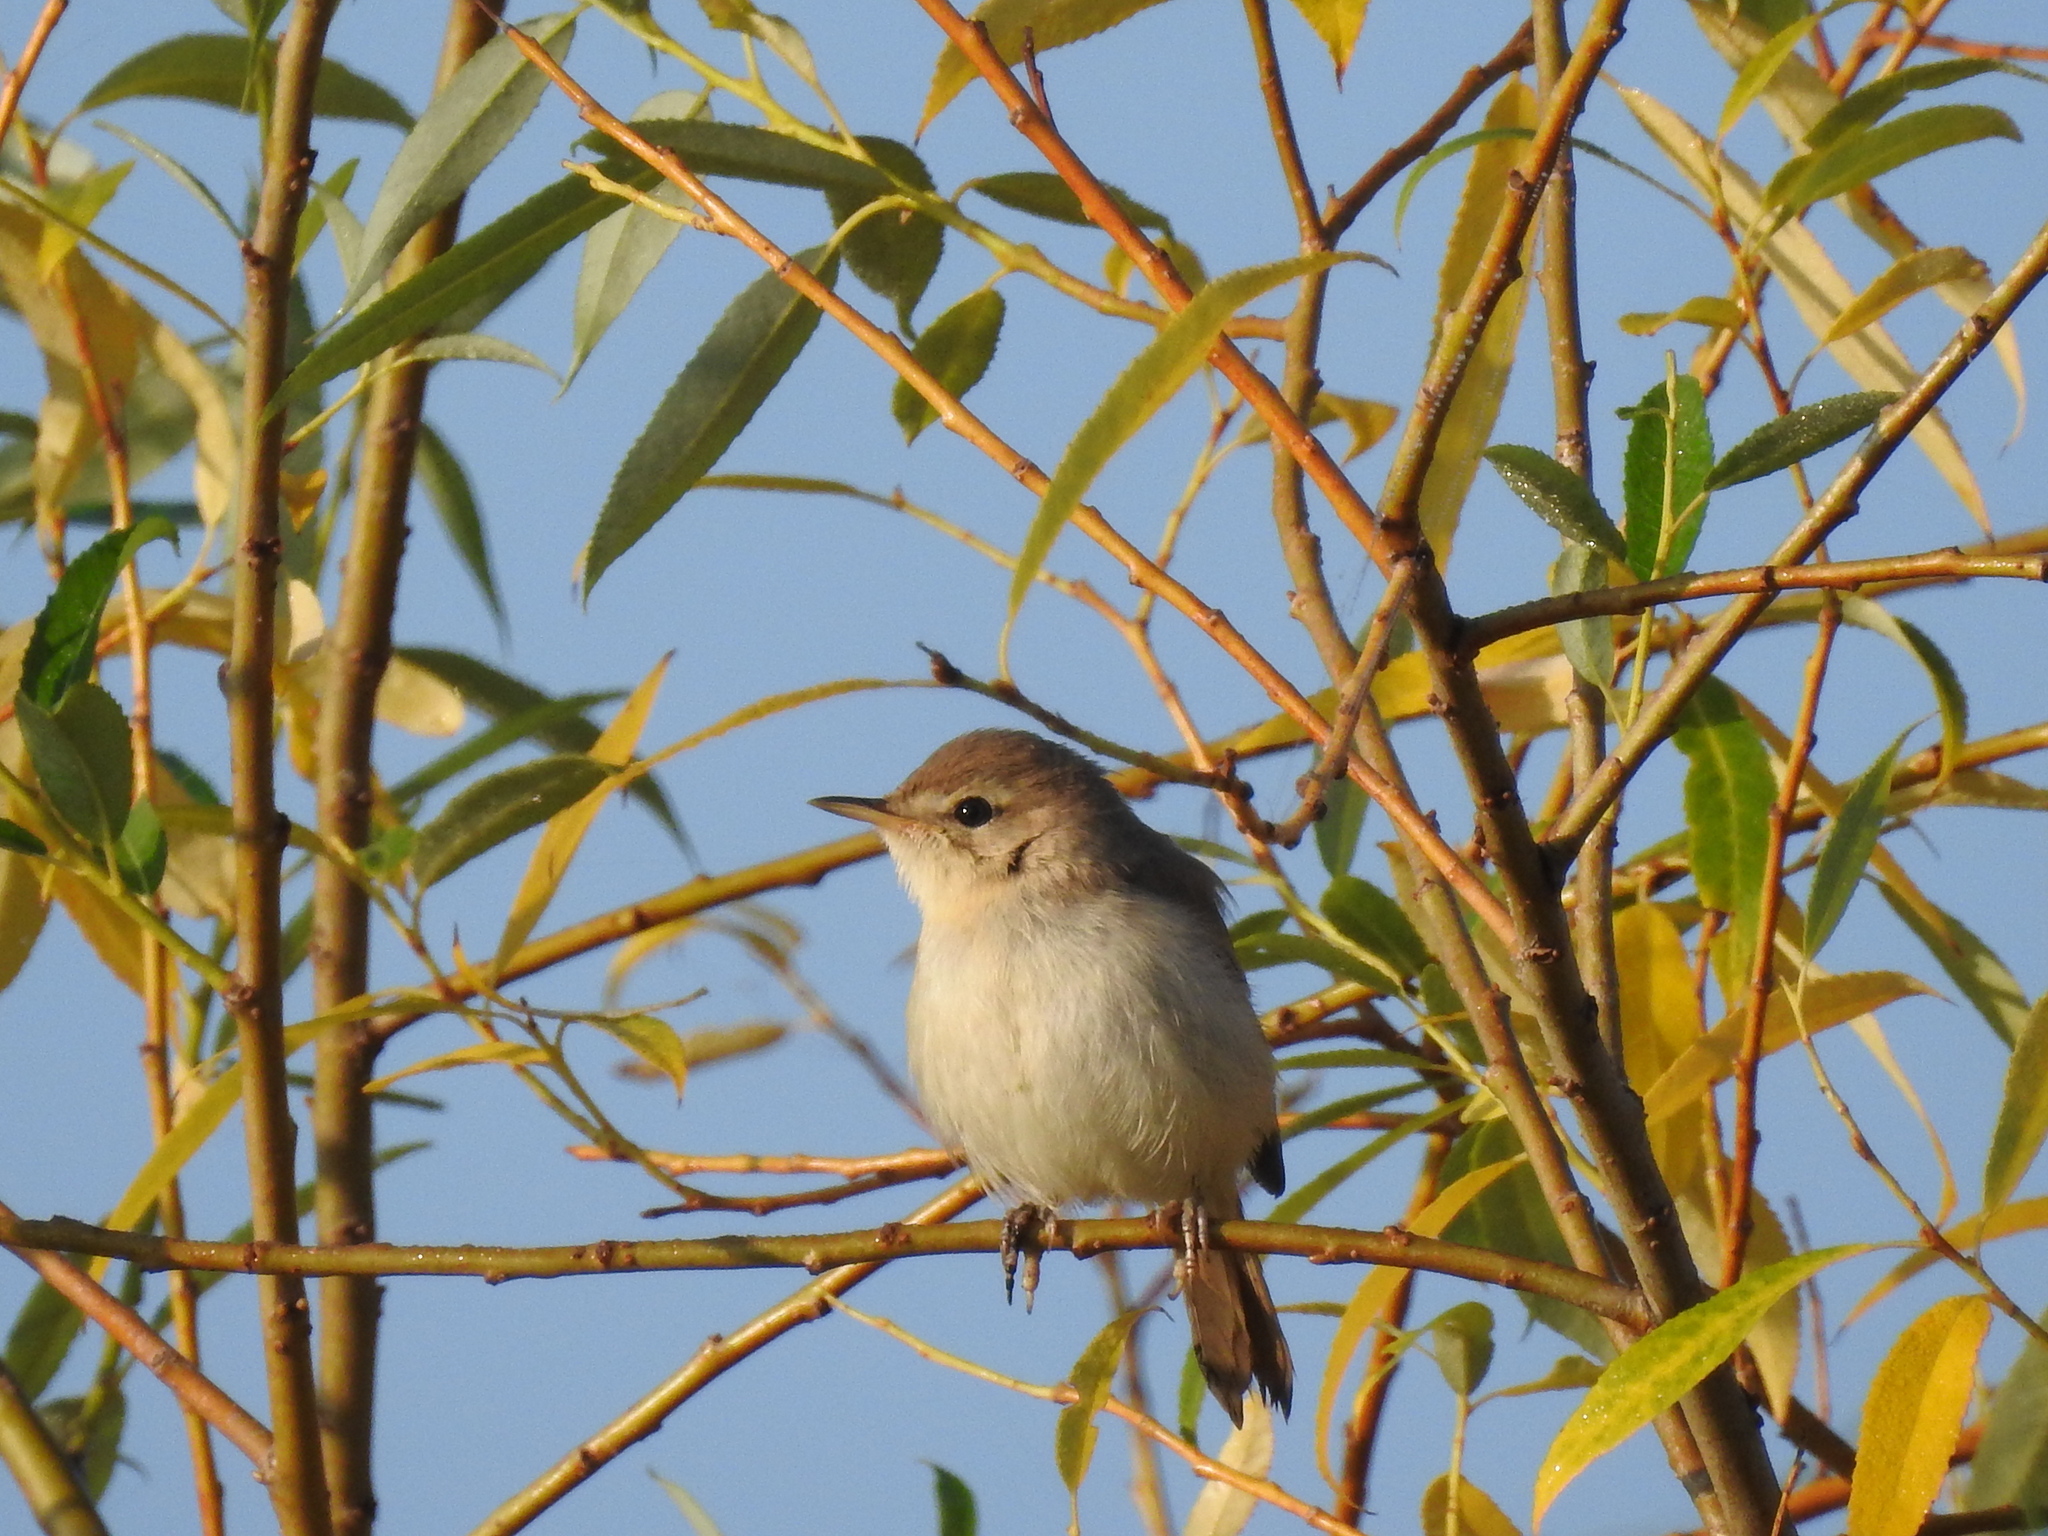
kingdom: Animalia
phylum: Chordata
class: Aves
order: Passeriformes
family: Acrocephalidae
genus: Iduna
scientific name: Iduna caligata
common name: Booted warbler
